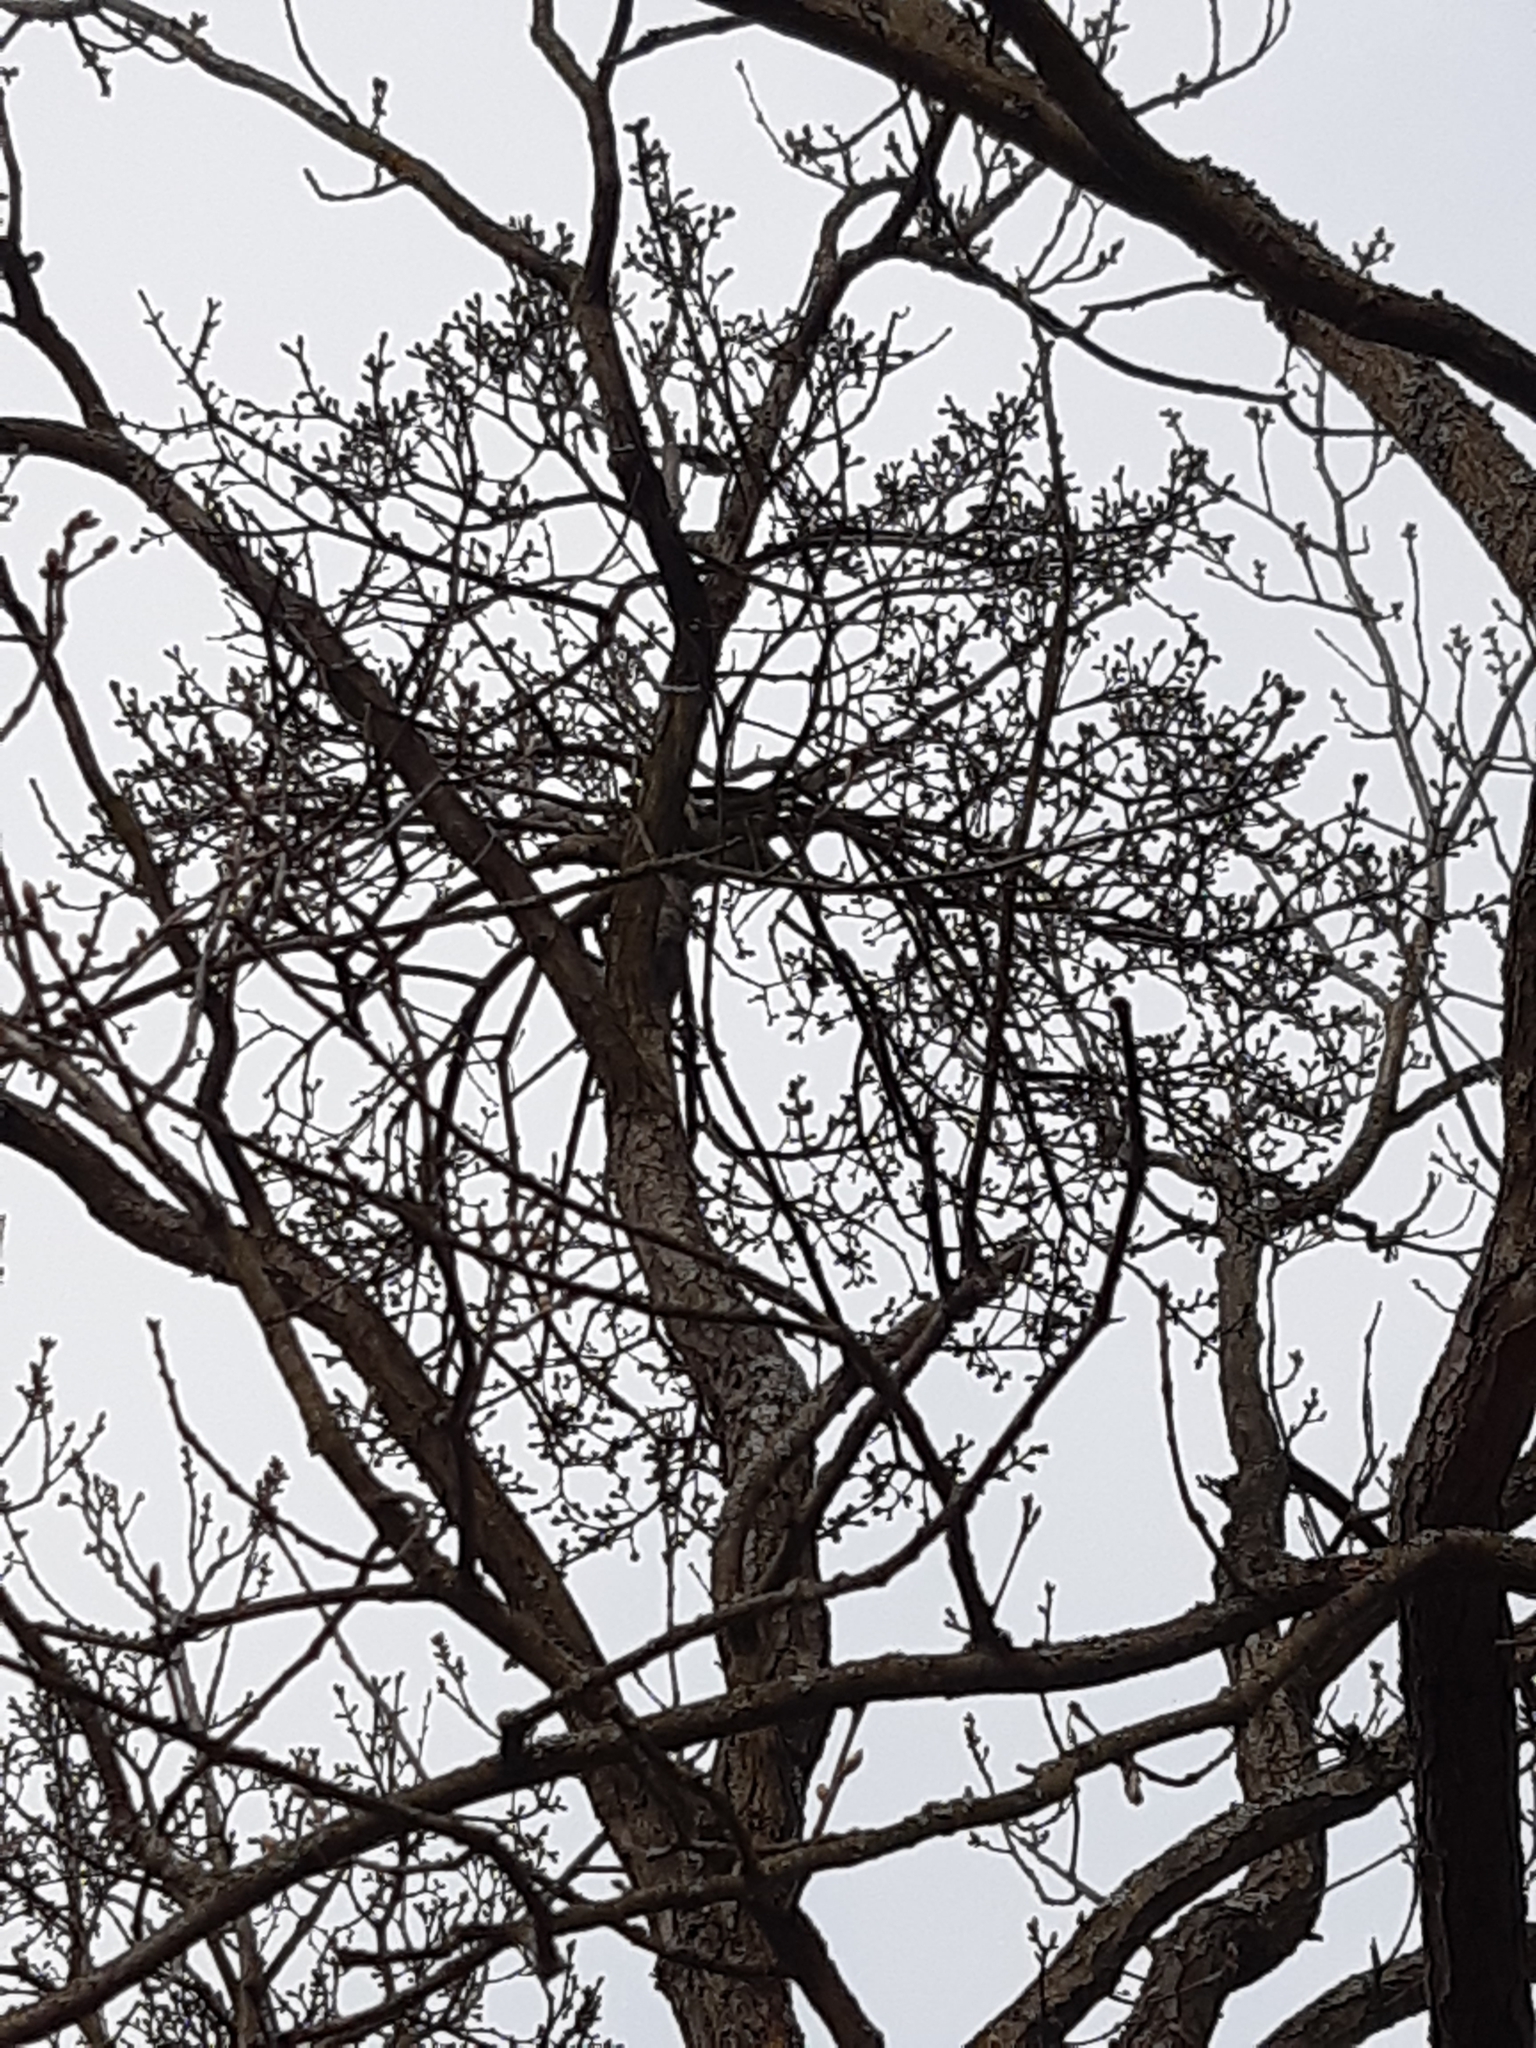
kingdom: Plantae
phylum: Tracheophyta
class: Magnoliopsida
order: Santalales
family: Loranthaceae
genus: Loranthus
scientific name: Loranthus europaeus
